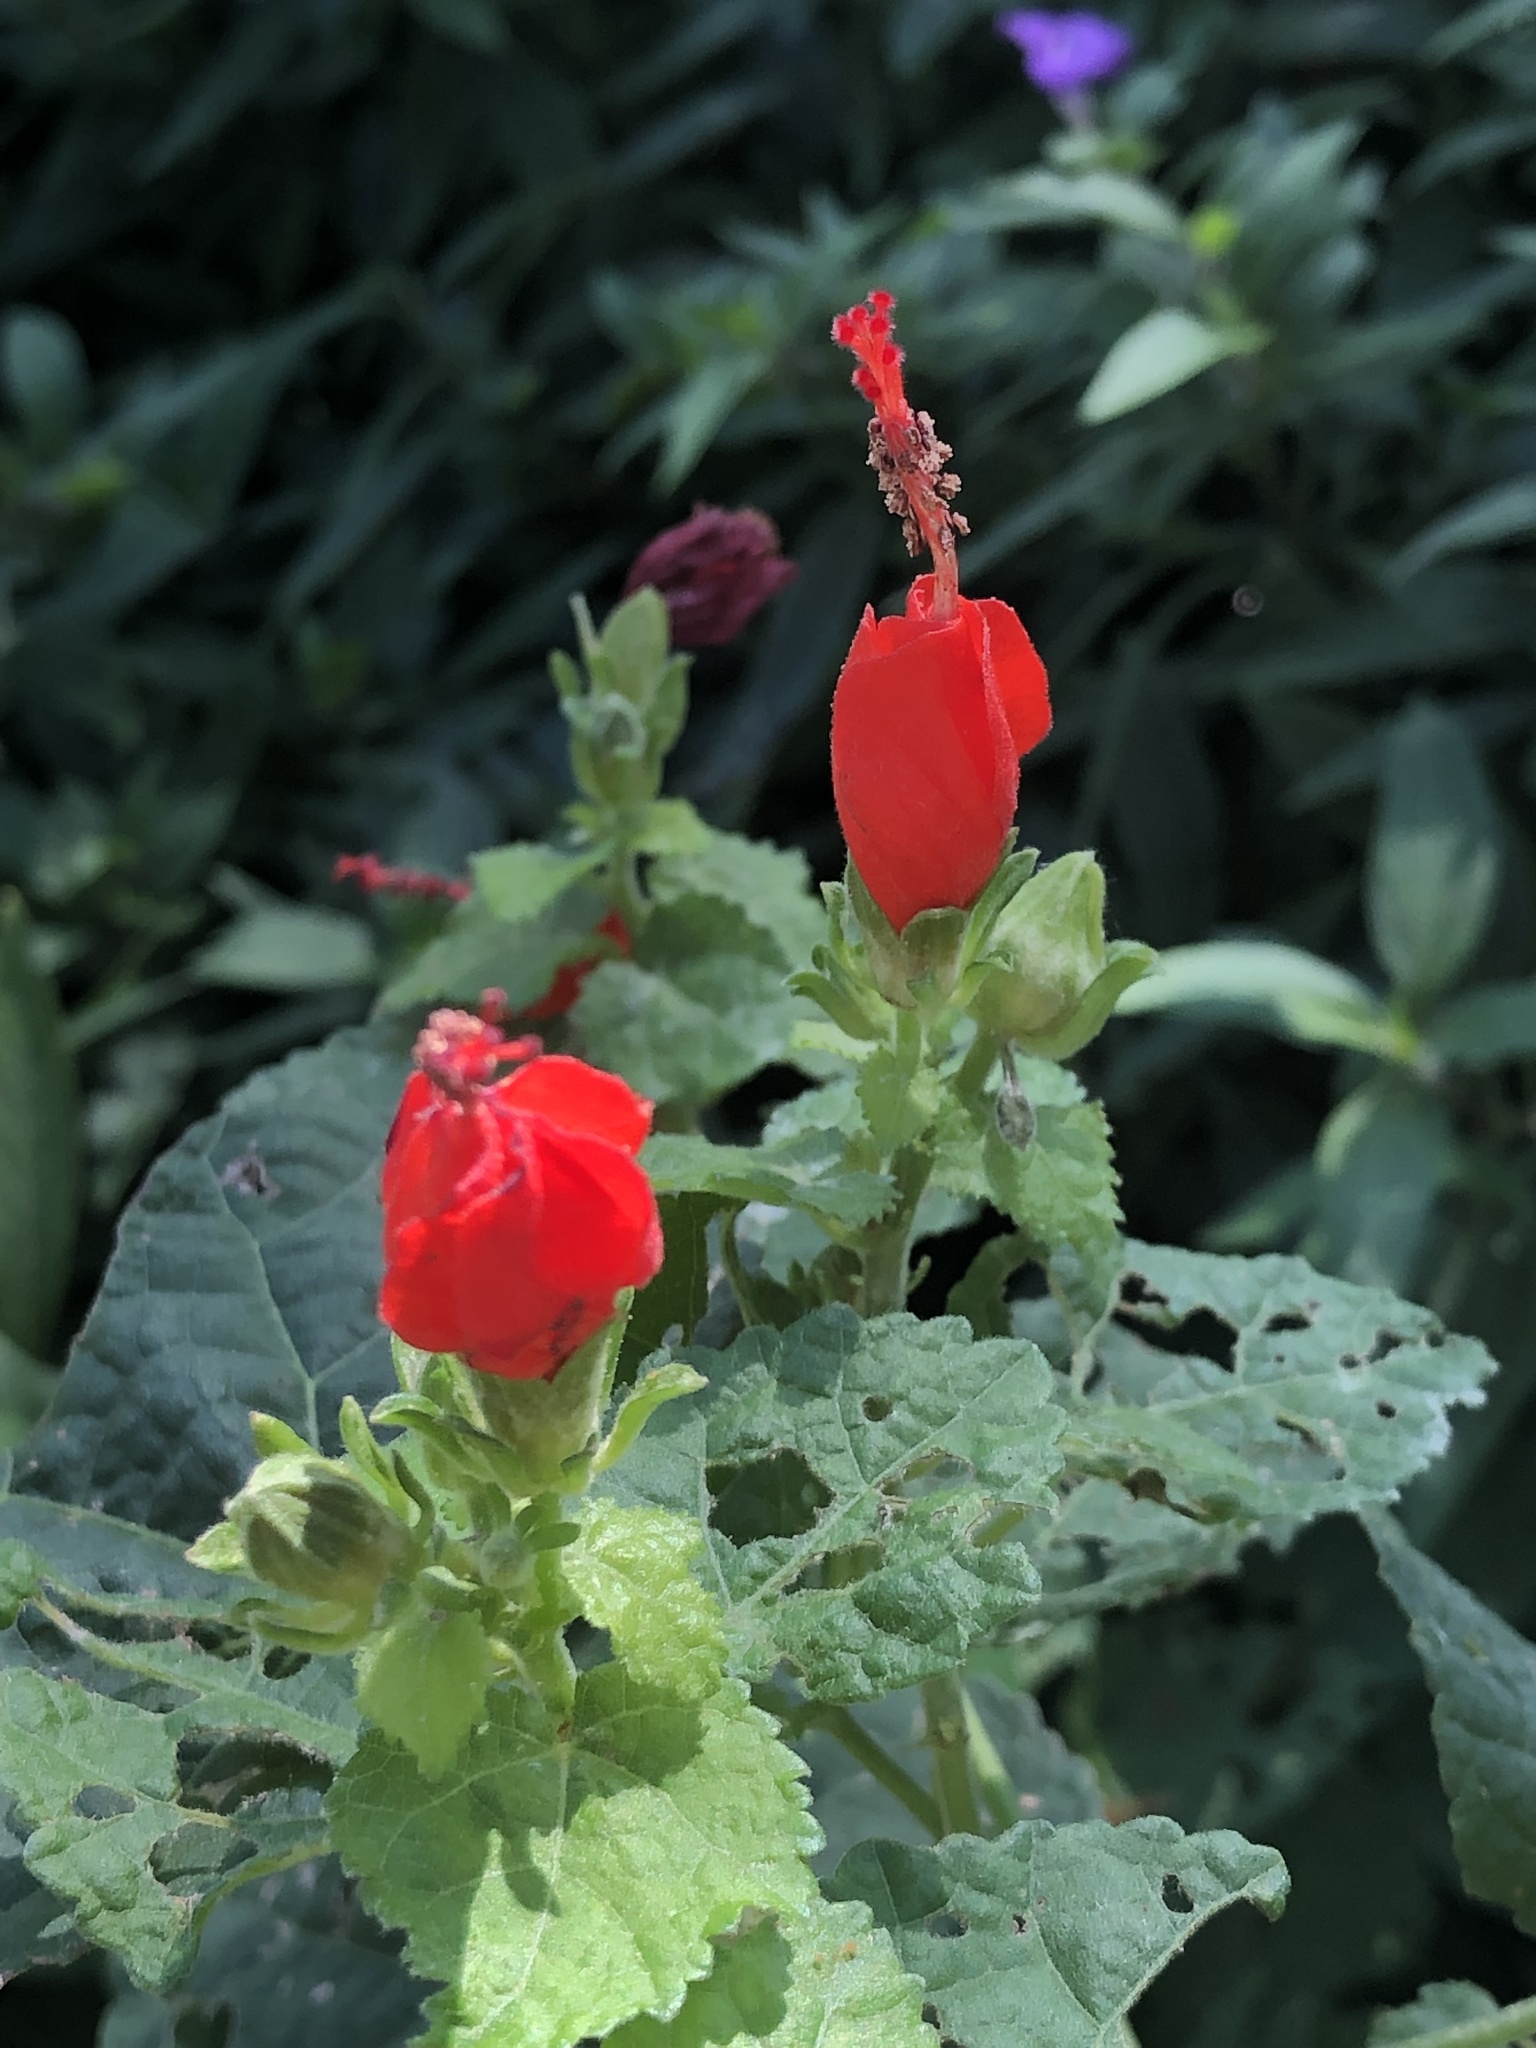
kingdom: Plantae
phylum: Tracheophyta
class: Magnoliopsida
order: Malvales
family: Malvaceae
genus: Malvaviscus
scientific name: Malvaviscus arboreus
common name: Wax mallow
